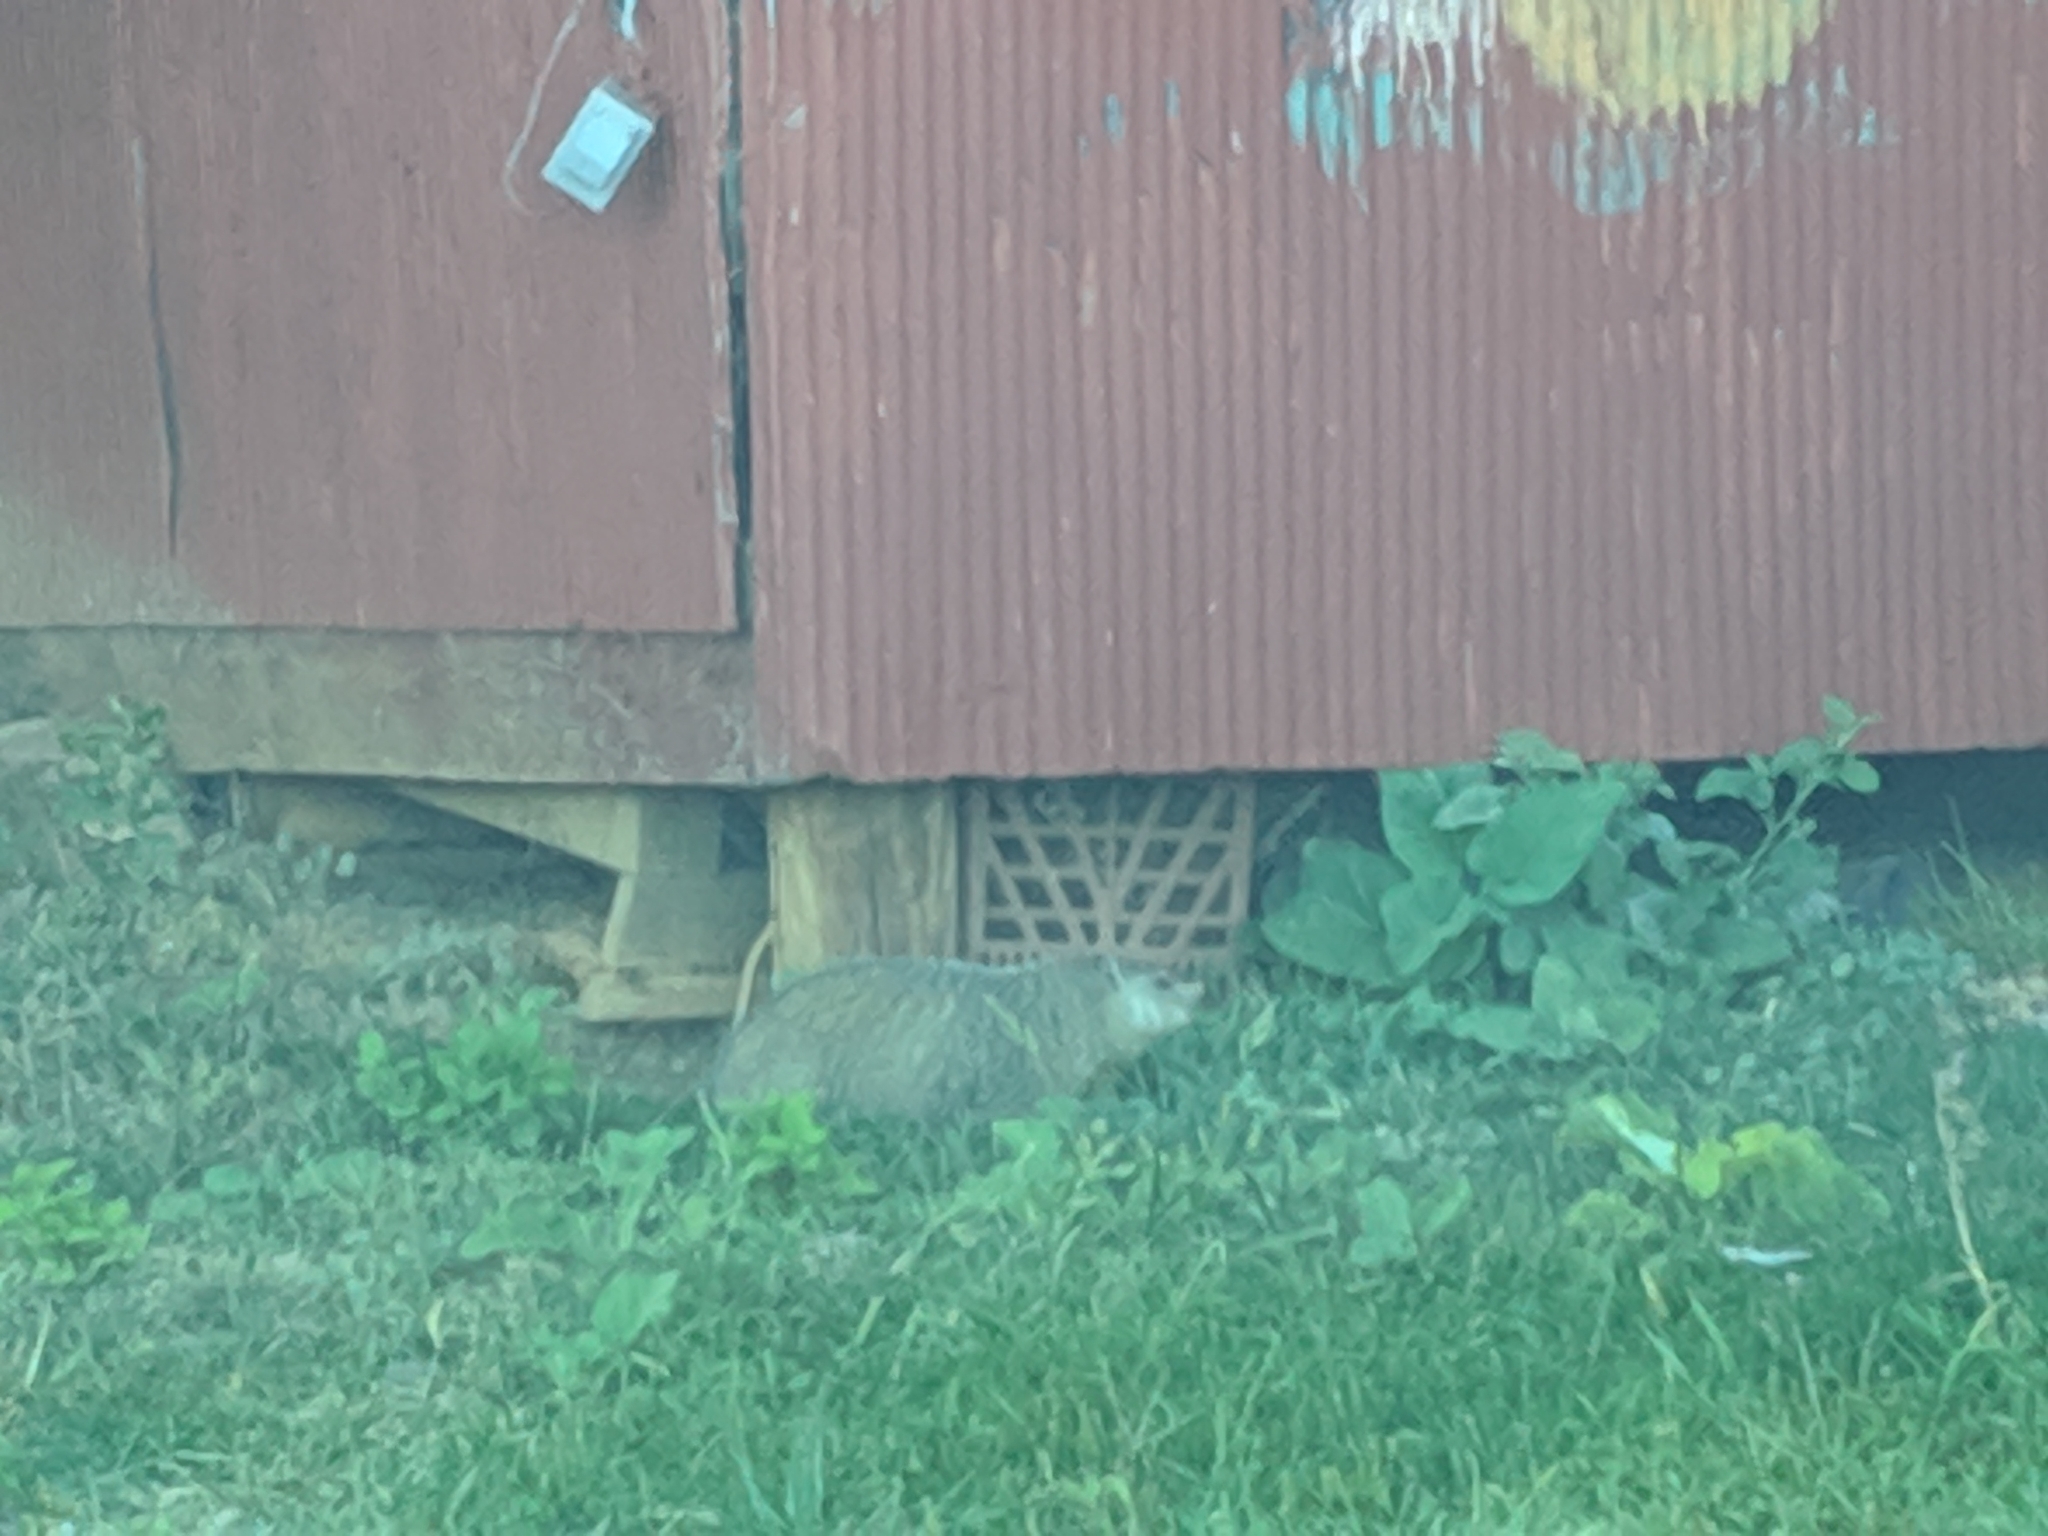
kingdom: Animalia
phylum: Chordata
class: Mammalia
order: Rodentia
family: Sciuridae
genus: Marmota
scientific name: Marmota monax
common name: Groundhog
